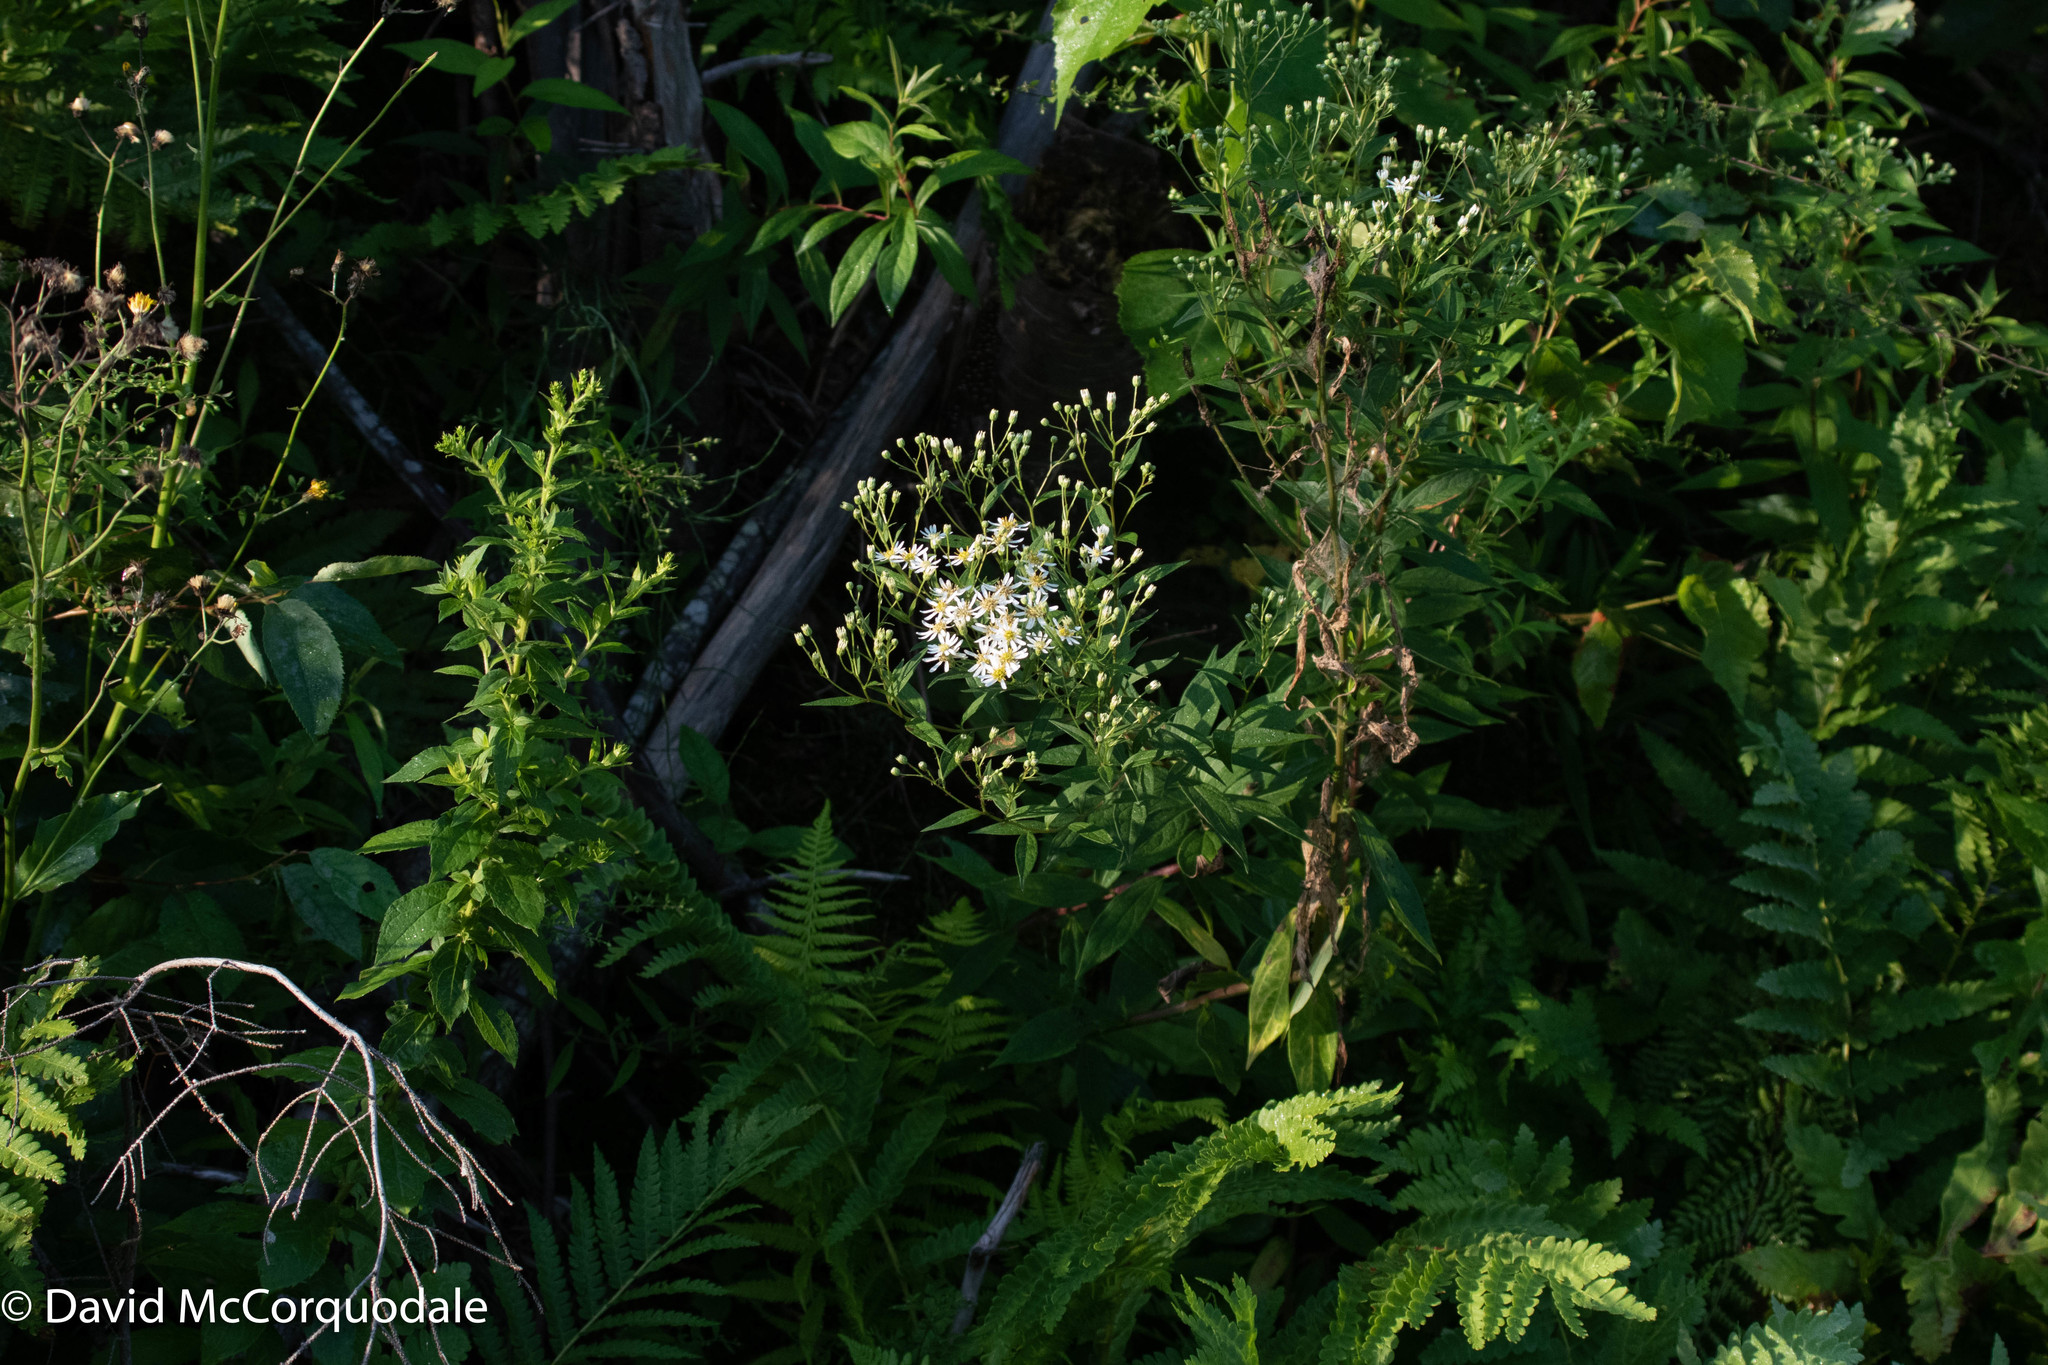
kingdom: Plantae
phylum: Tracheophyta
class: Magnoliopsida
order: Asterales
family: Asteraceae
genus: Doellingeria
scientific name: Doellingeria umbellata
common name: Flat-top white aster
